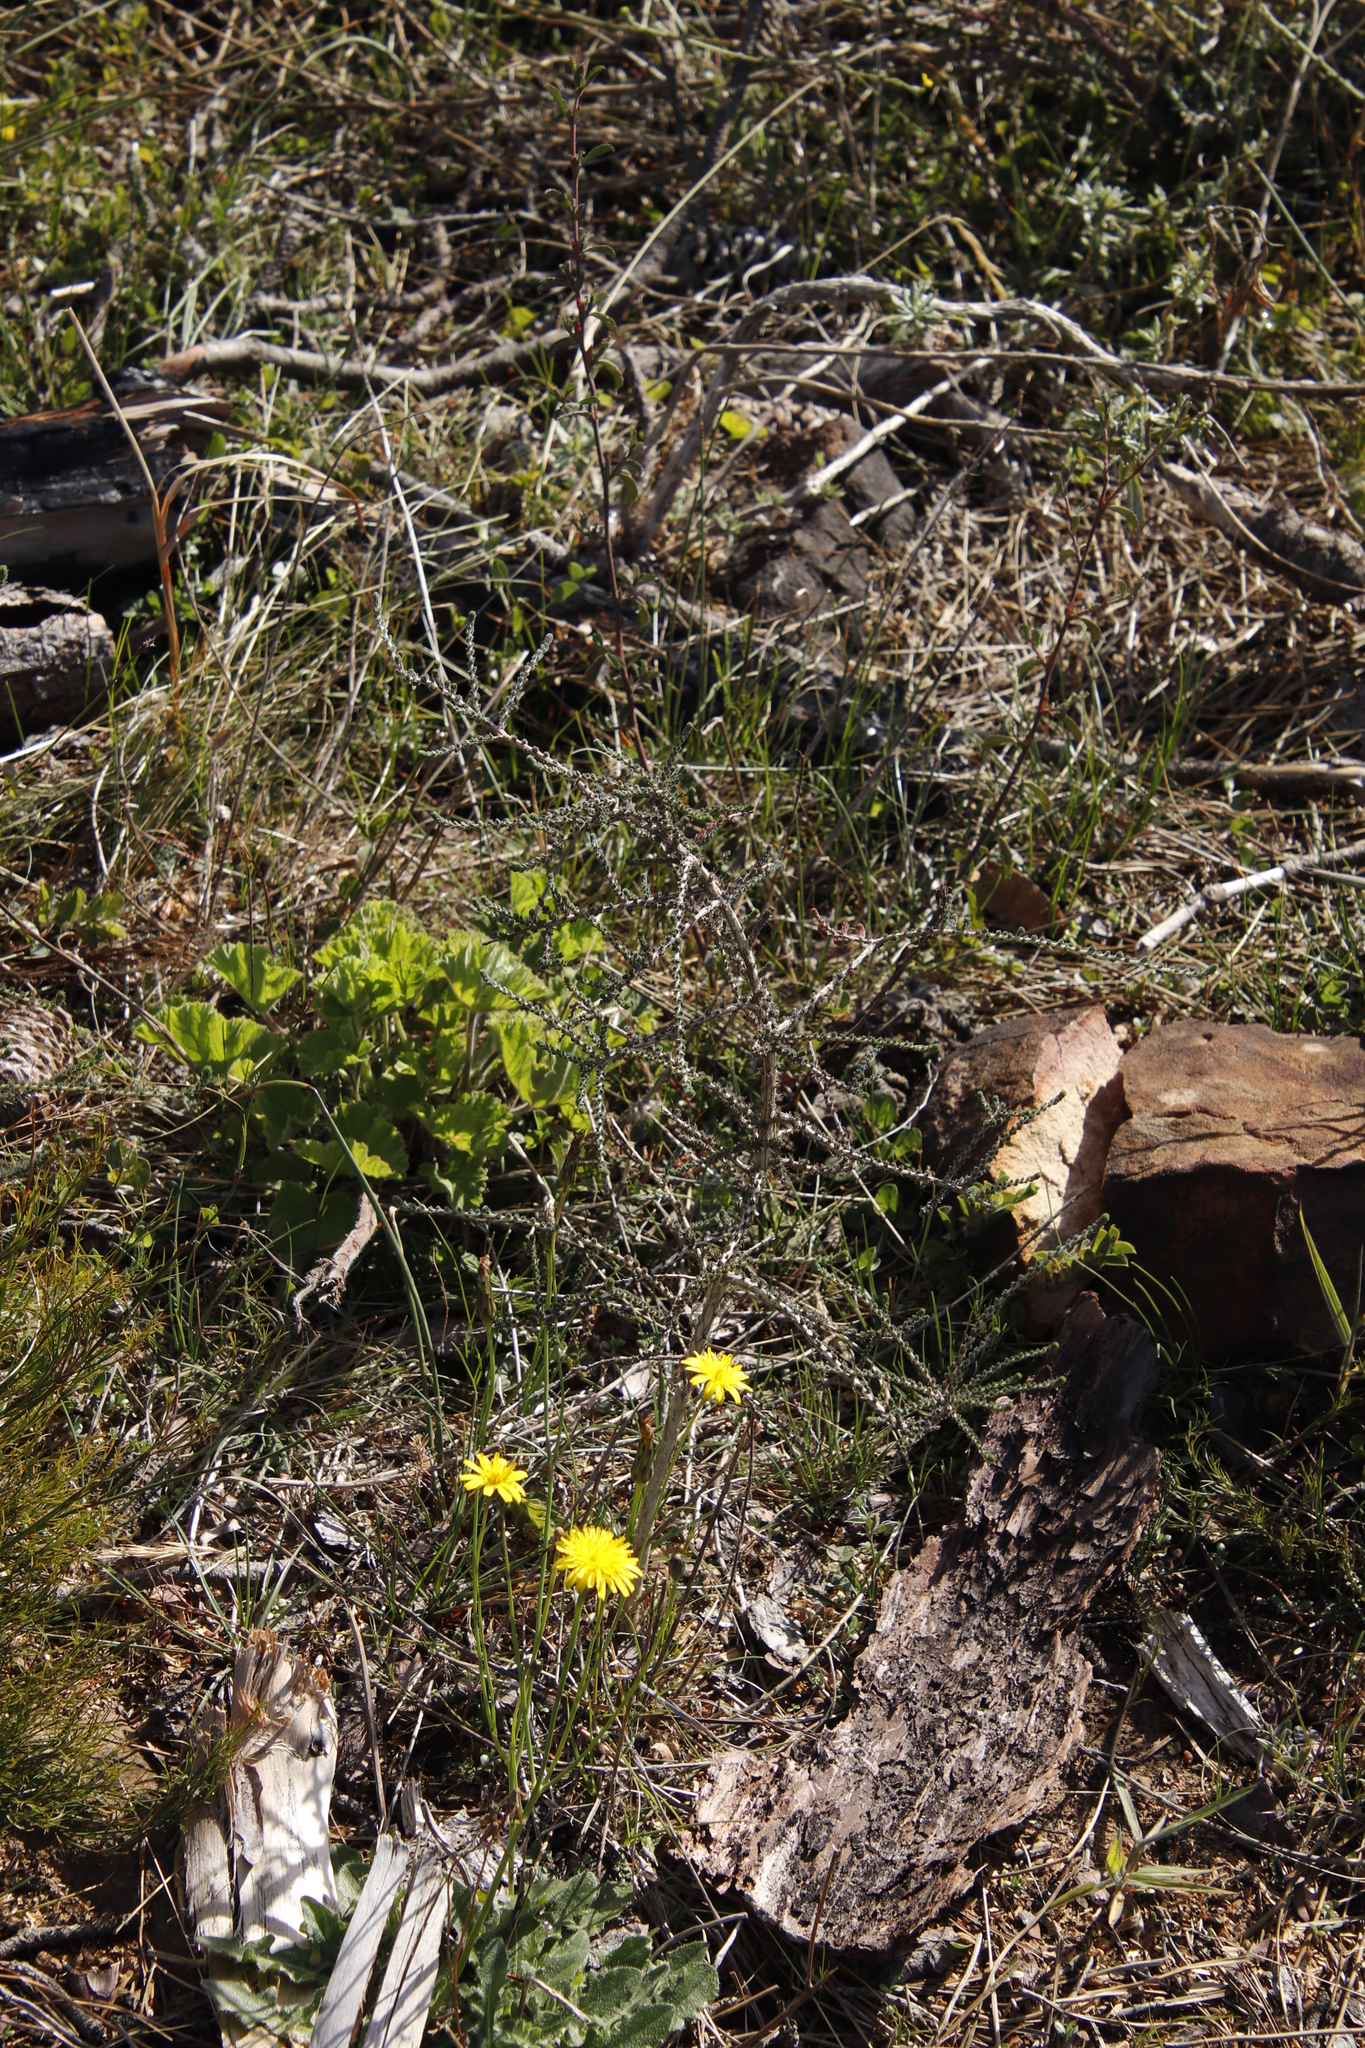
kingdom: Plantae
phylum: Tracheophyta
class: Magnoliopsida
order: Fabales
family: Fabaceae
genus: Aspalathus
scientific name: Aspalathus hispida
